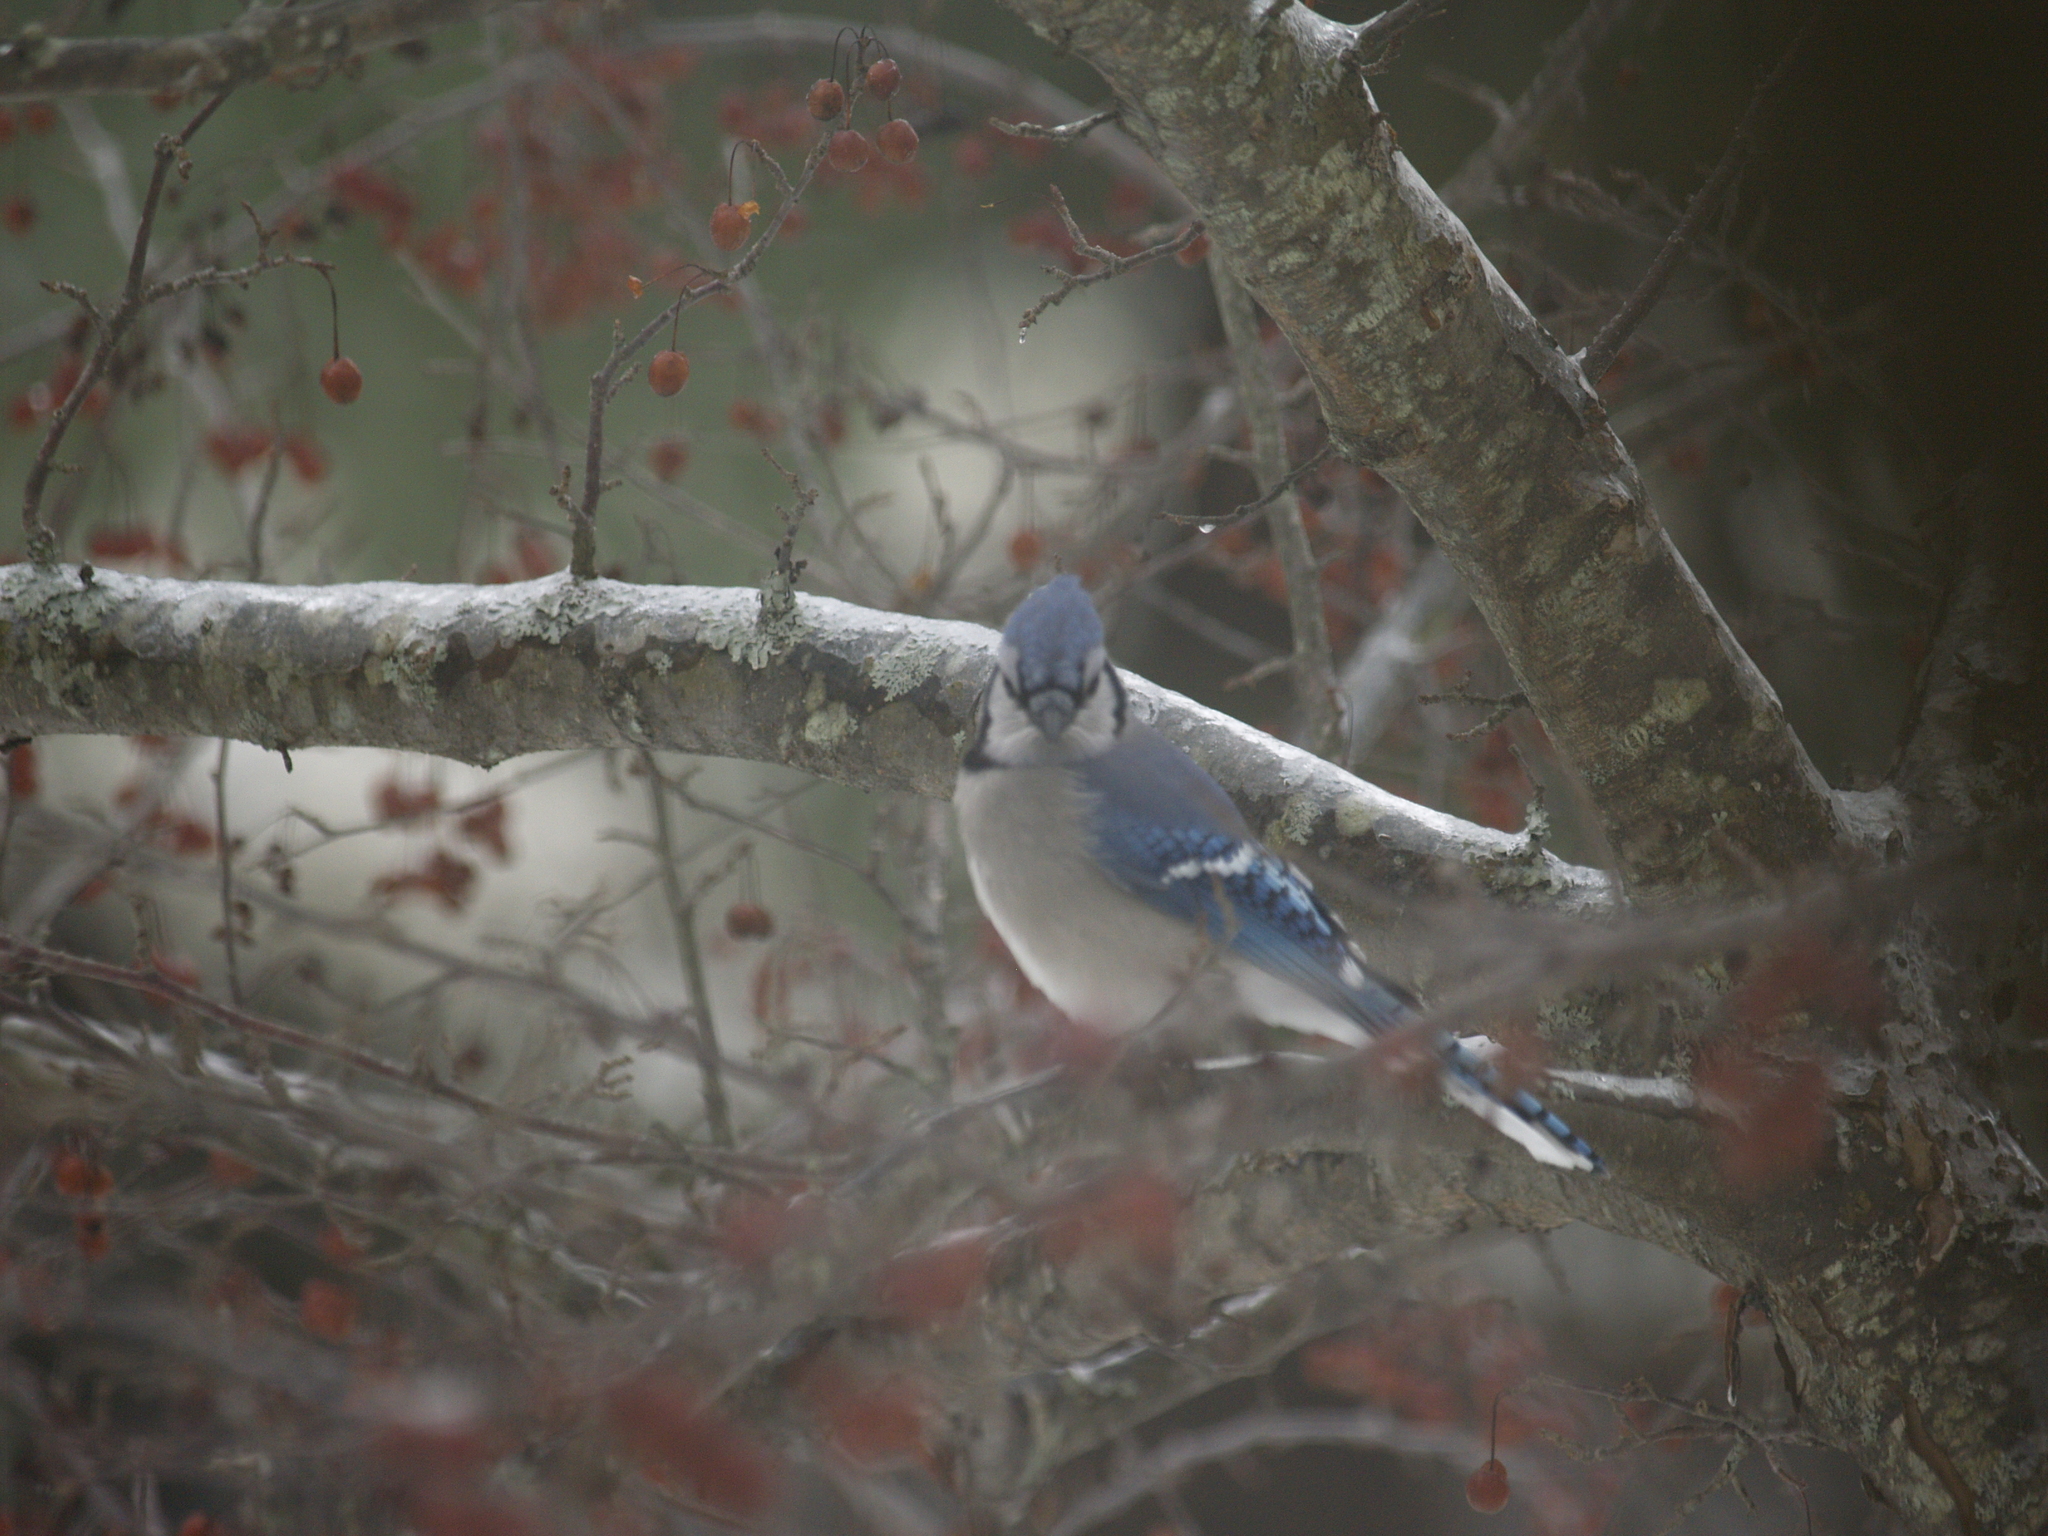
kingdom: Animalia
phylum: Chordata
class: Aves
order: Passeriformes
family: Corvidae
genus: Cyanocitta
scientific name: Cyanocitta cristata
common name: Blue jay
